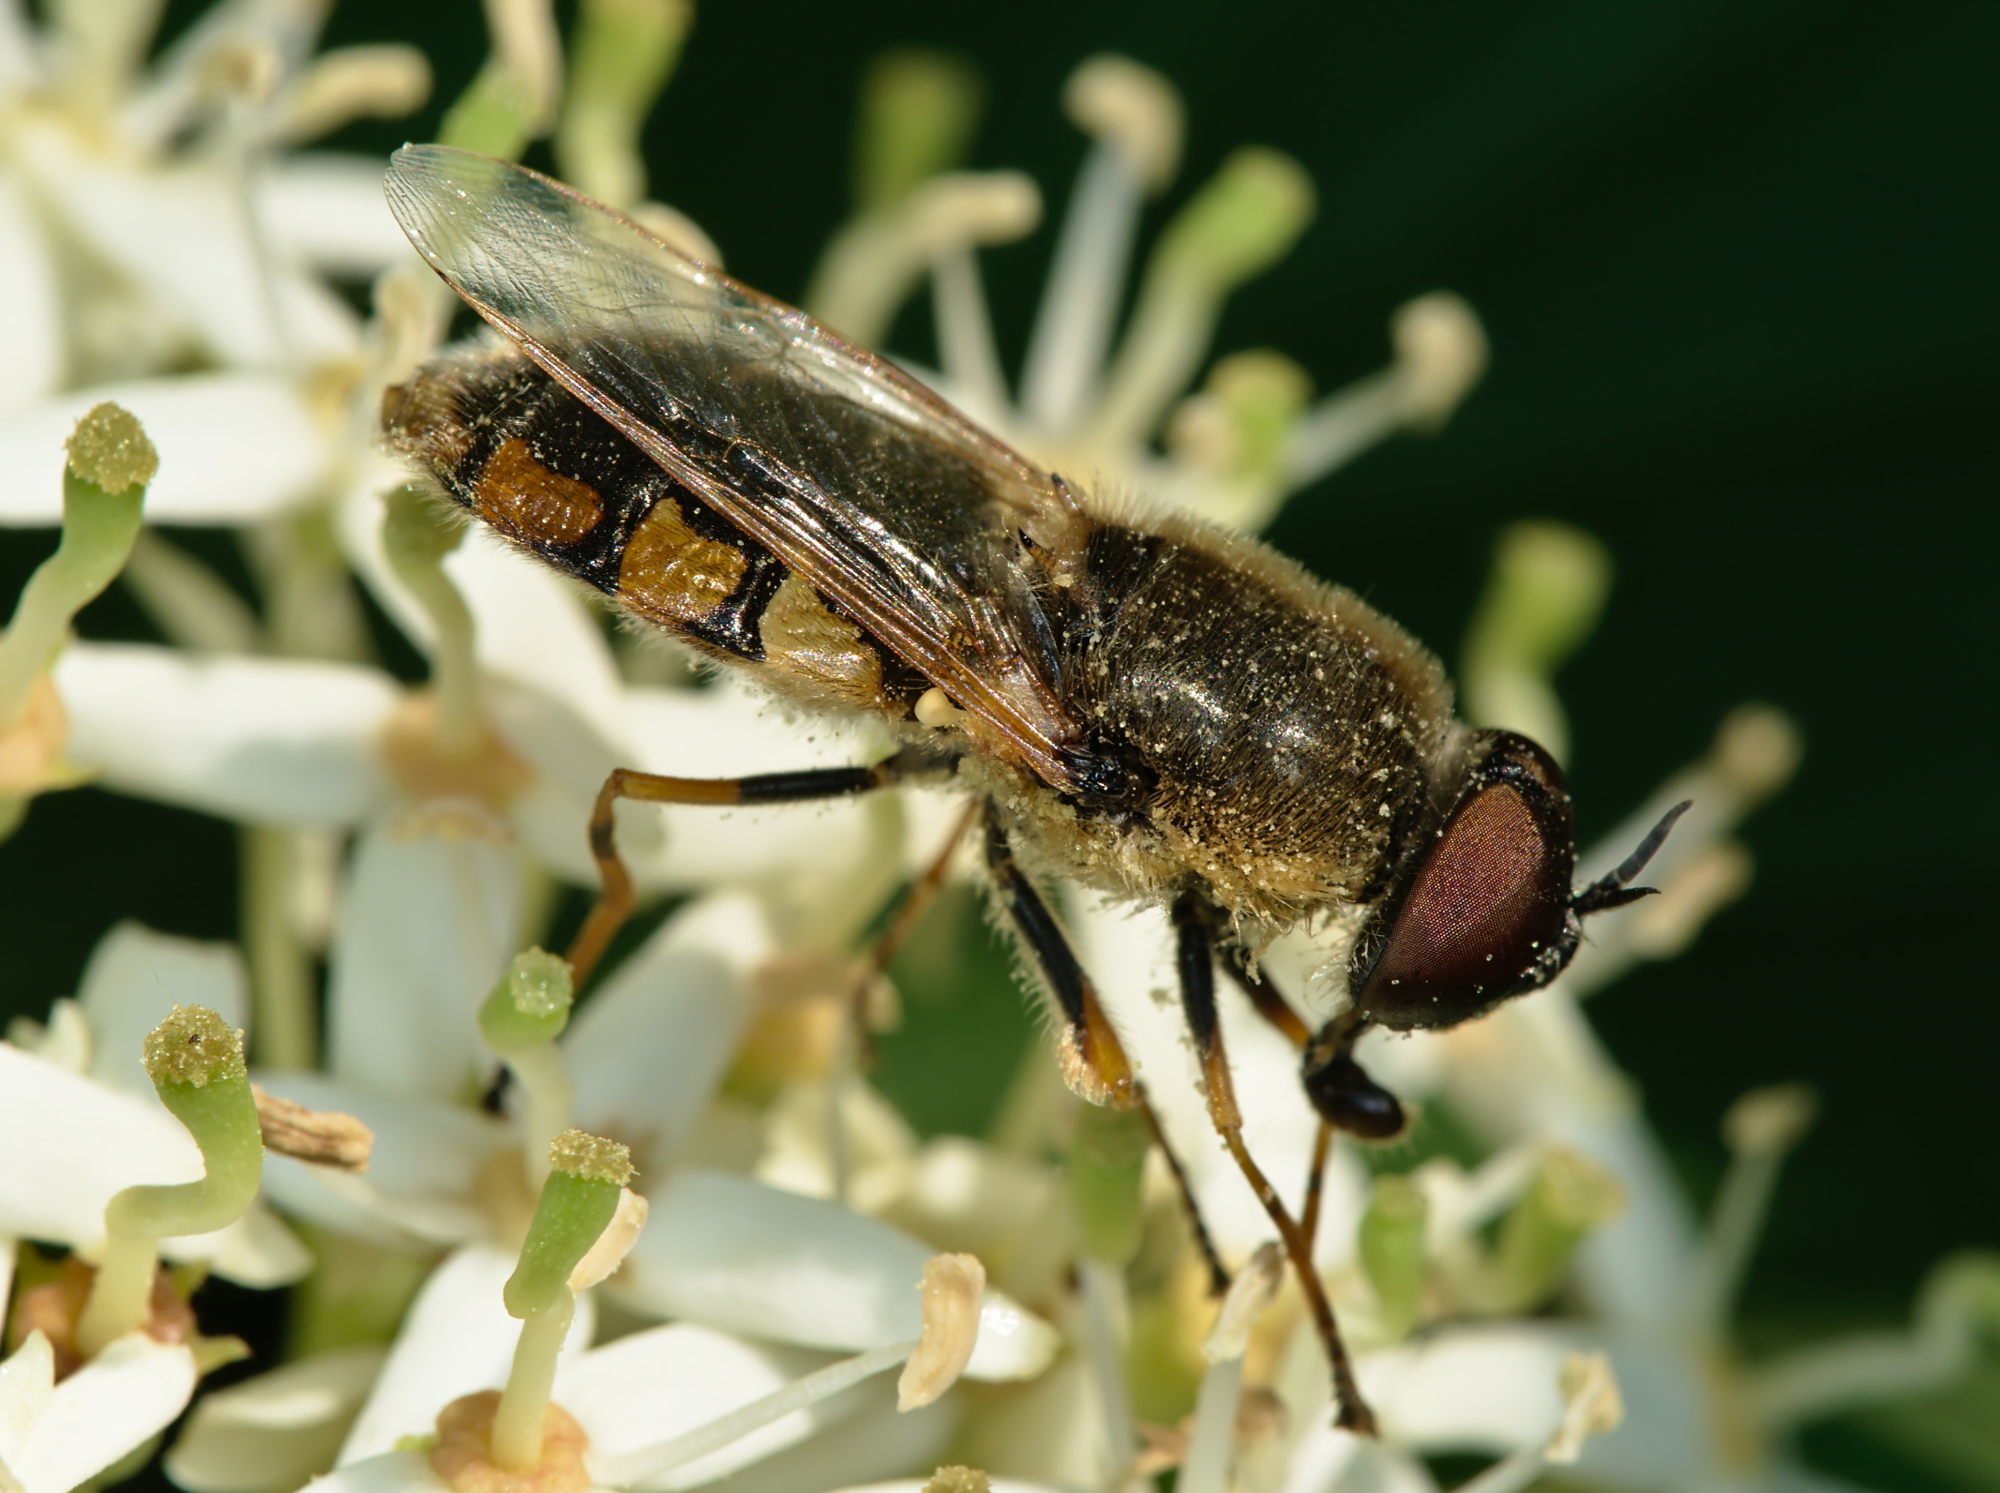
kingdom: Animalia
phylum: Arthropoda
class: Insecta
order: Diptera
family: Stratiomyidae
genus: Odontomyia
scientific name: Odontomyia ornata
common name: Ornate brigadier
